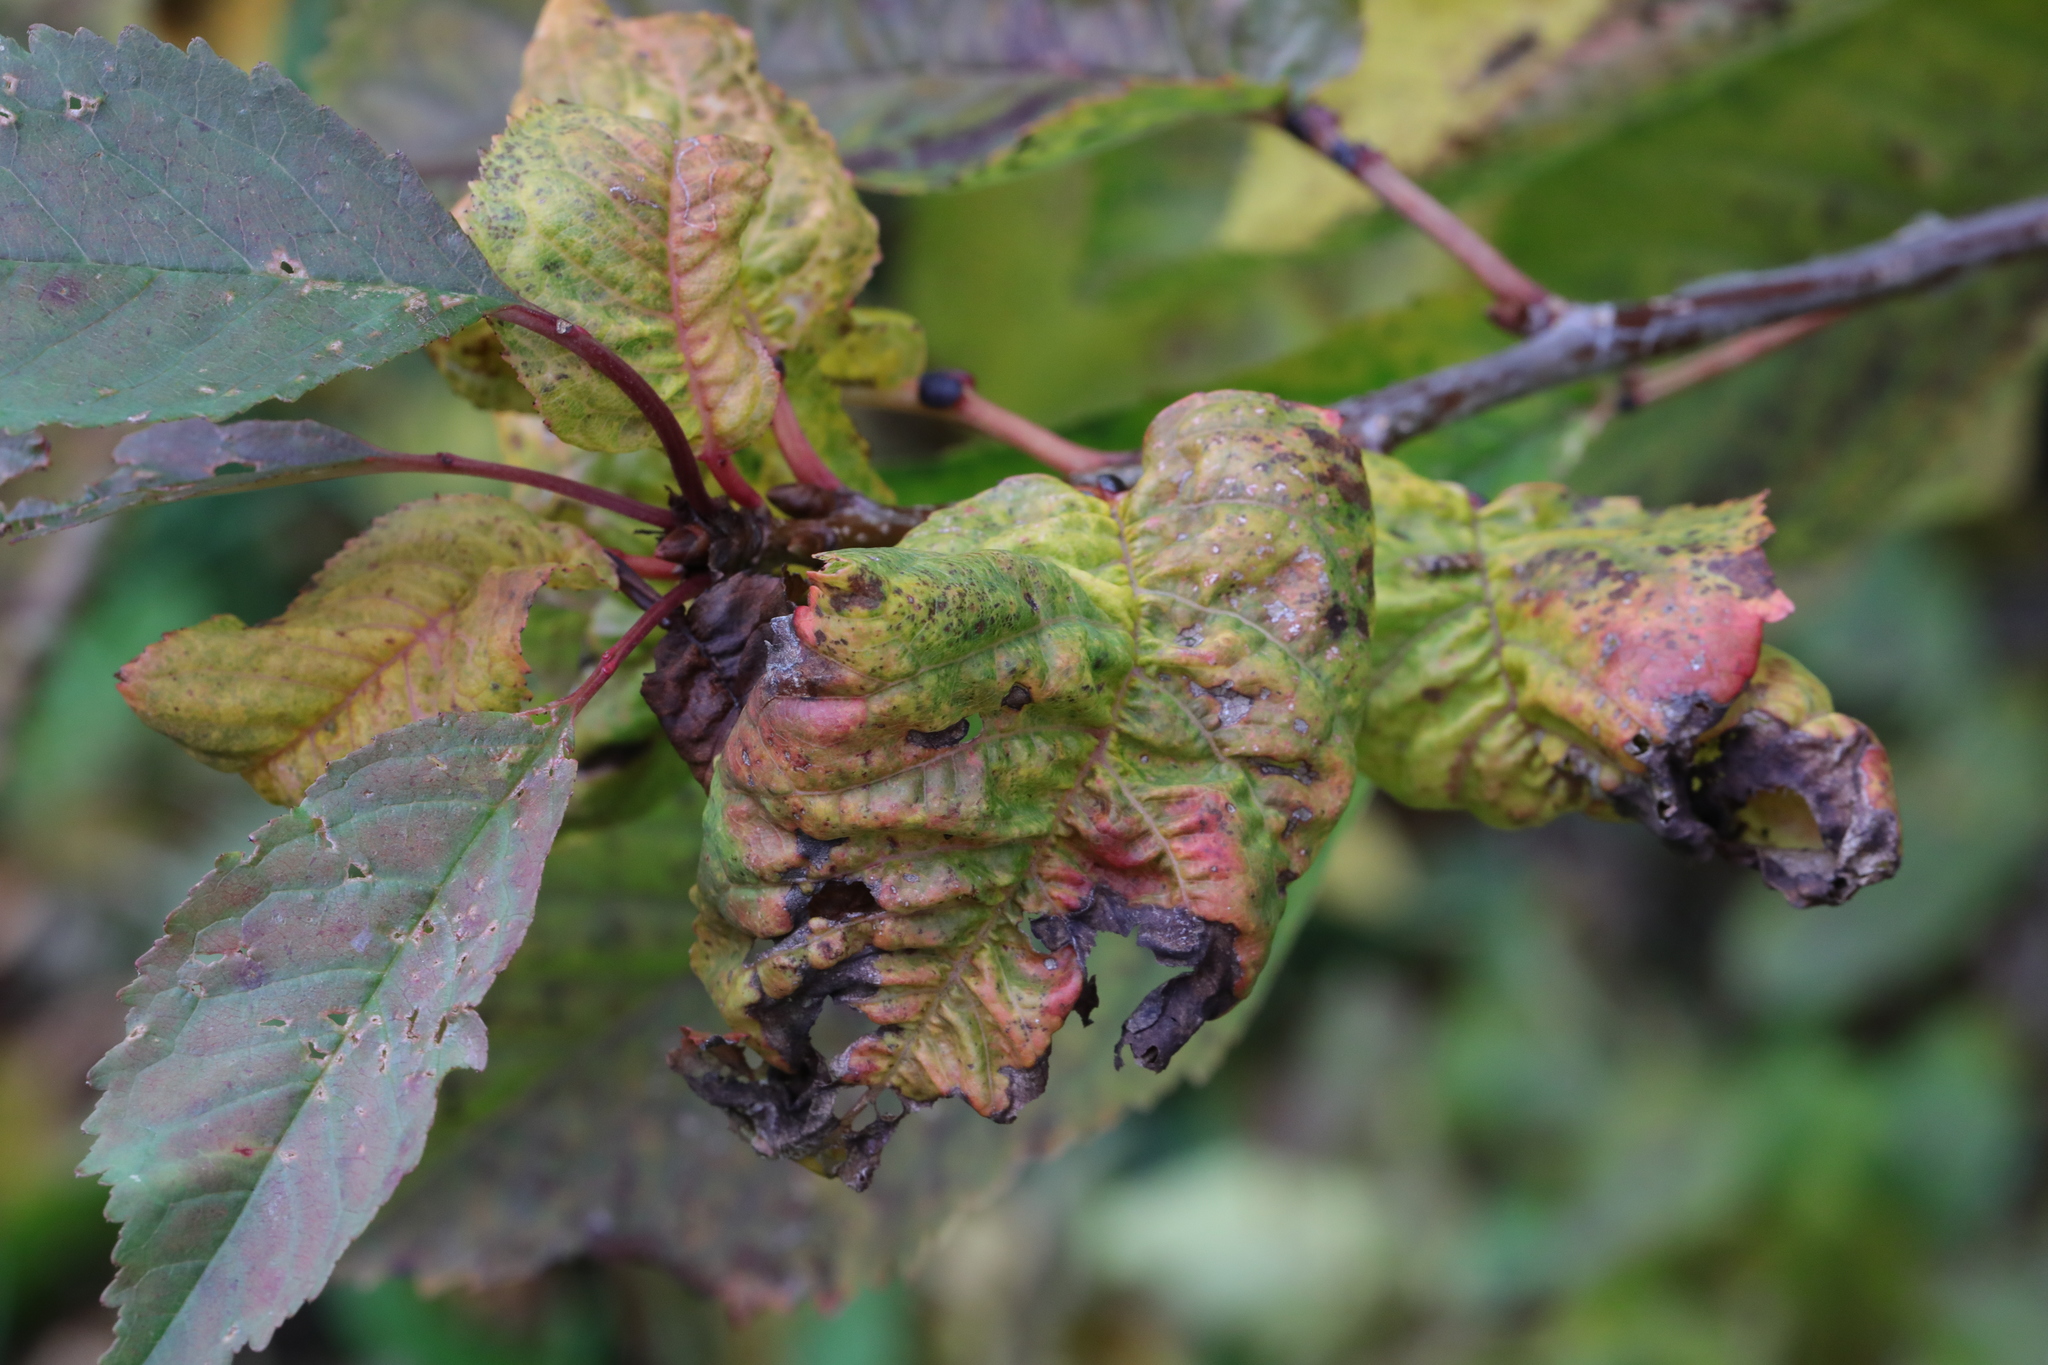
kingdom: Animalia
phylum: Arthropoda
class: Insecta
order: Hemiptera
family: Aphididae
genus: Myzus
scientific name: Myzus cerasi
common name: Black cherry aphid
